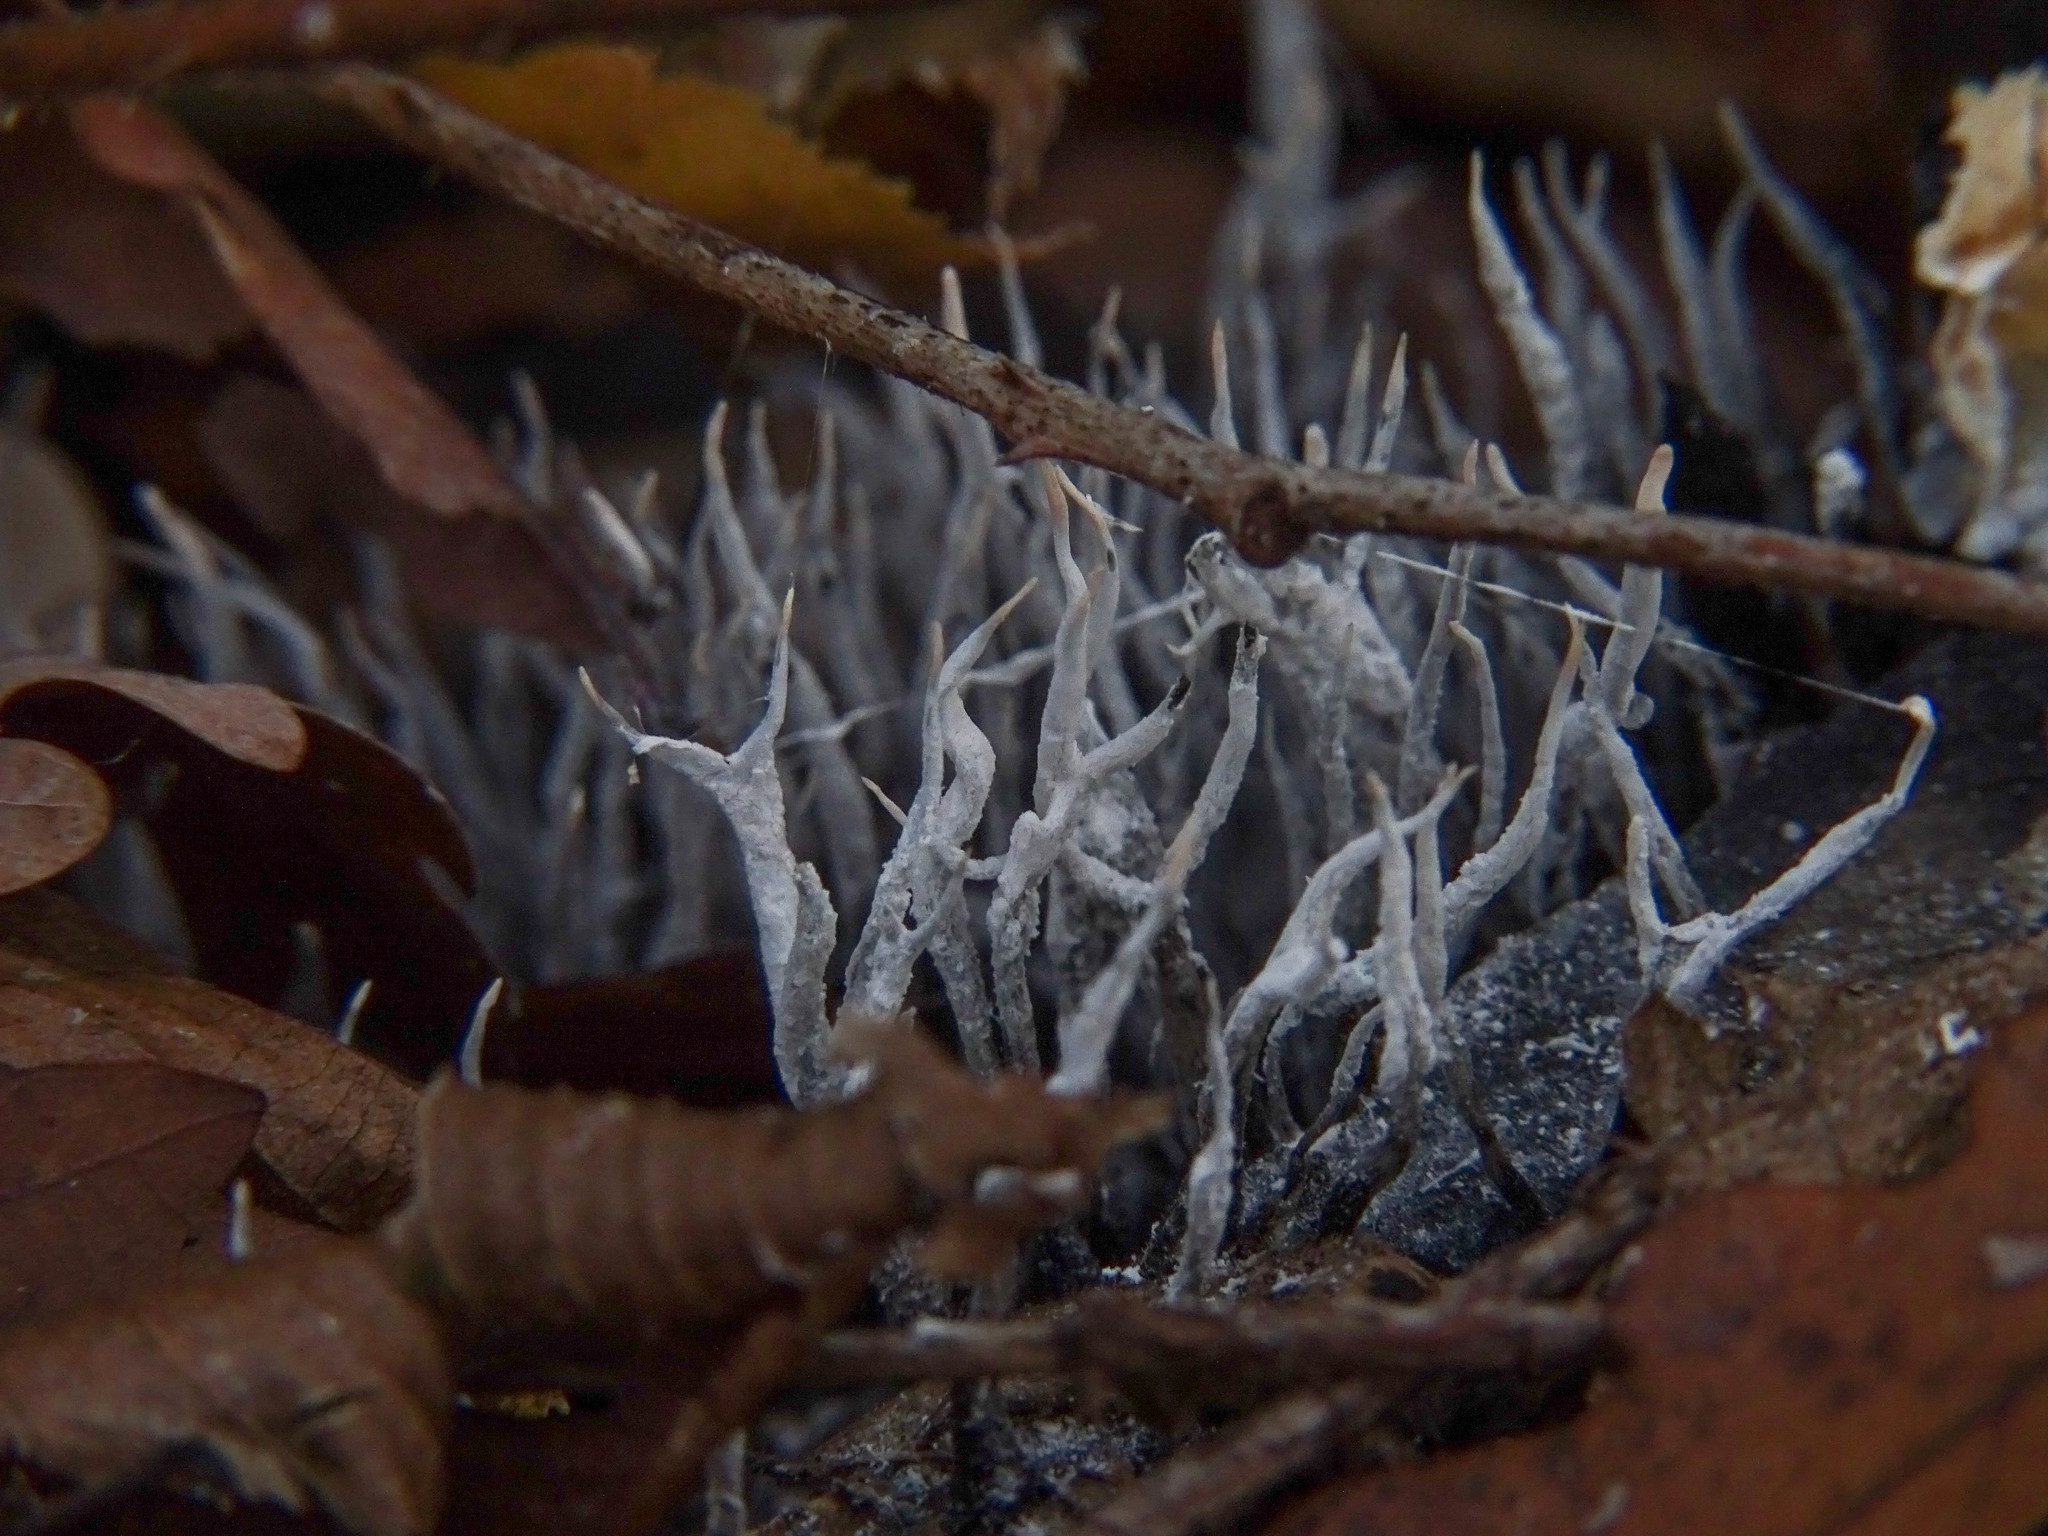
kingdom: Fungi
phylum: Ascomycota
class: Sordariomycetes
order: Xylariales
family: Xylariaceae
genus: Xylaria
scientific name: Xylaria hypoxylon
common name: Candle-snuff fungus
